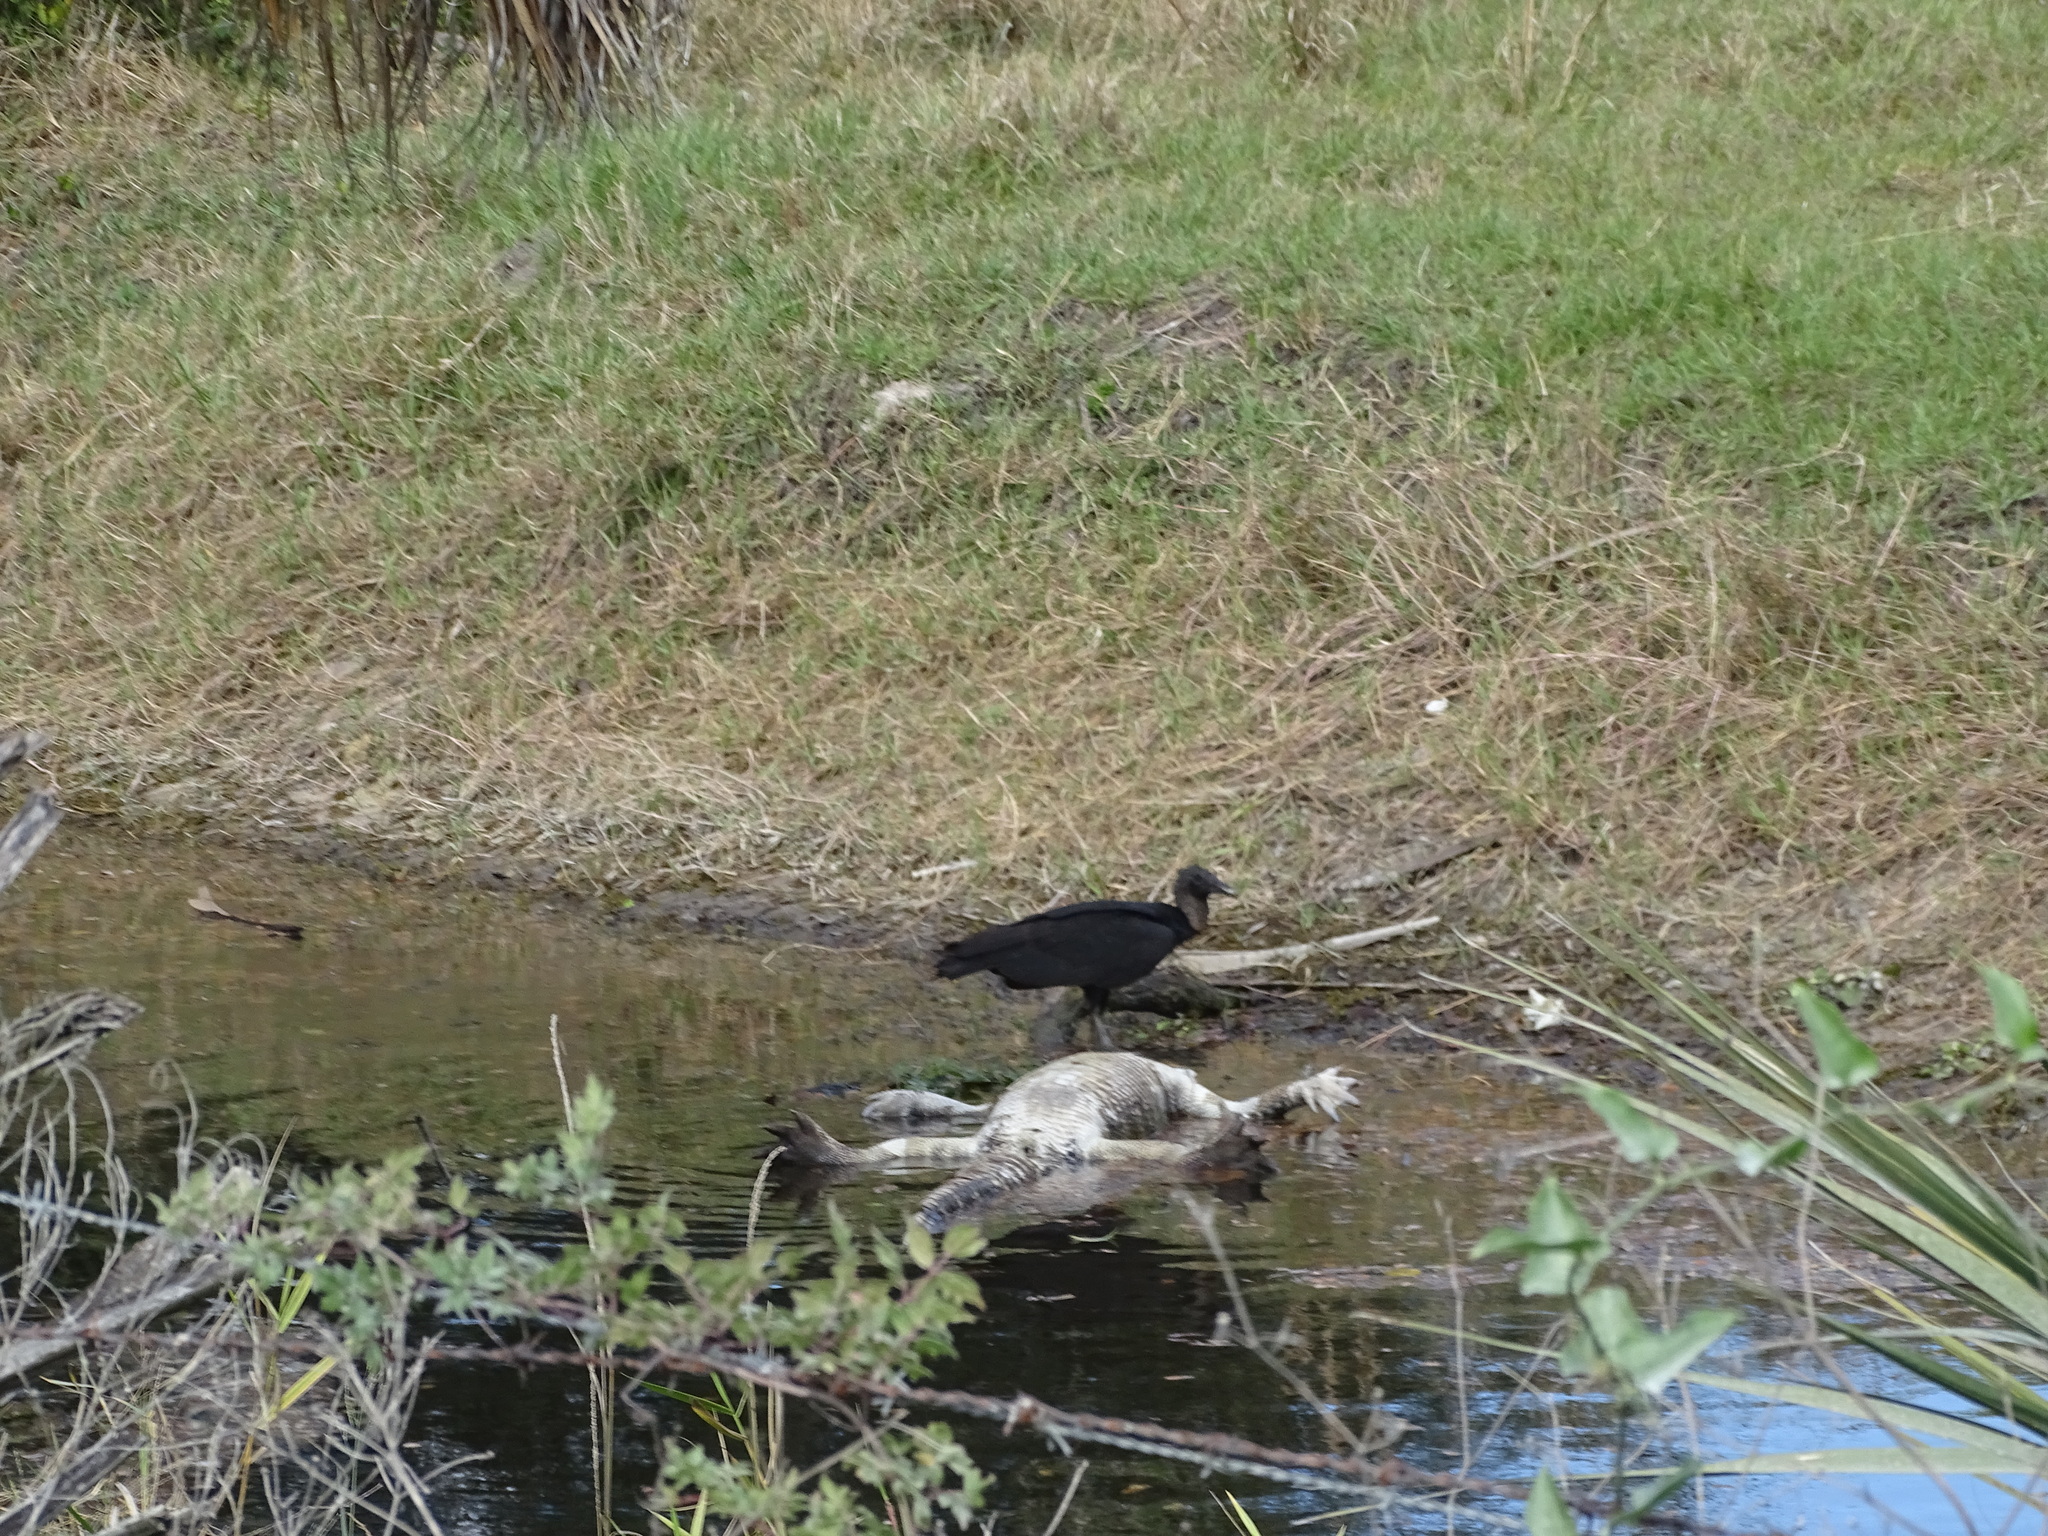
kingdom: Animalia
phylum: Chordata
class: Aves
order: Accipitriformes
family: Cathartidae
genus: Coragyps
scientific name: Coragyps atratus
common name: Black vulture
